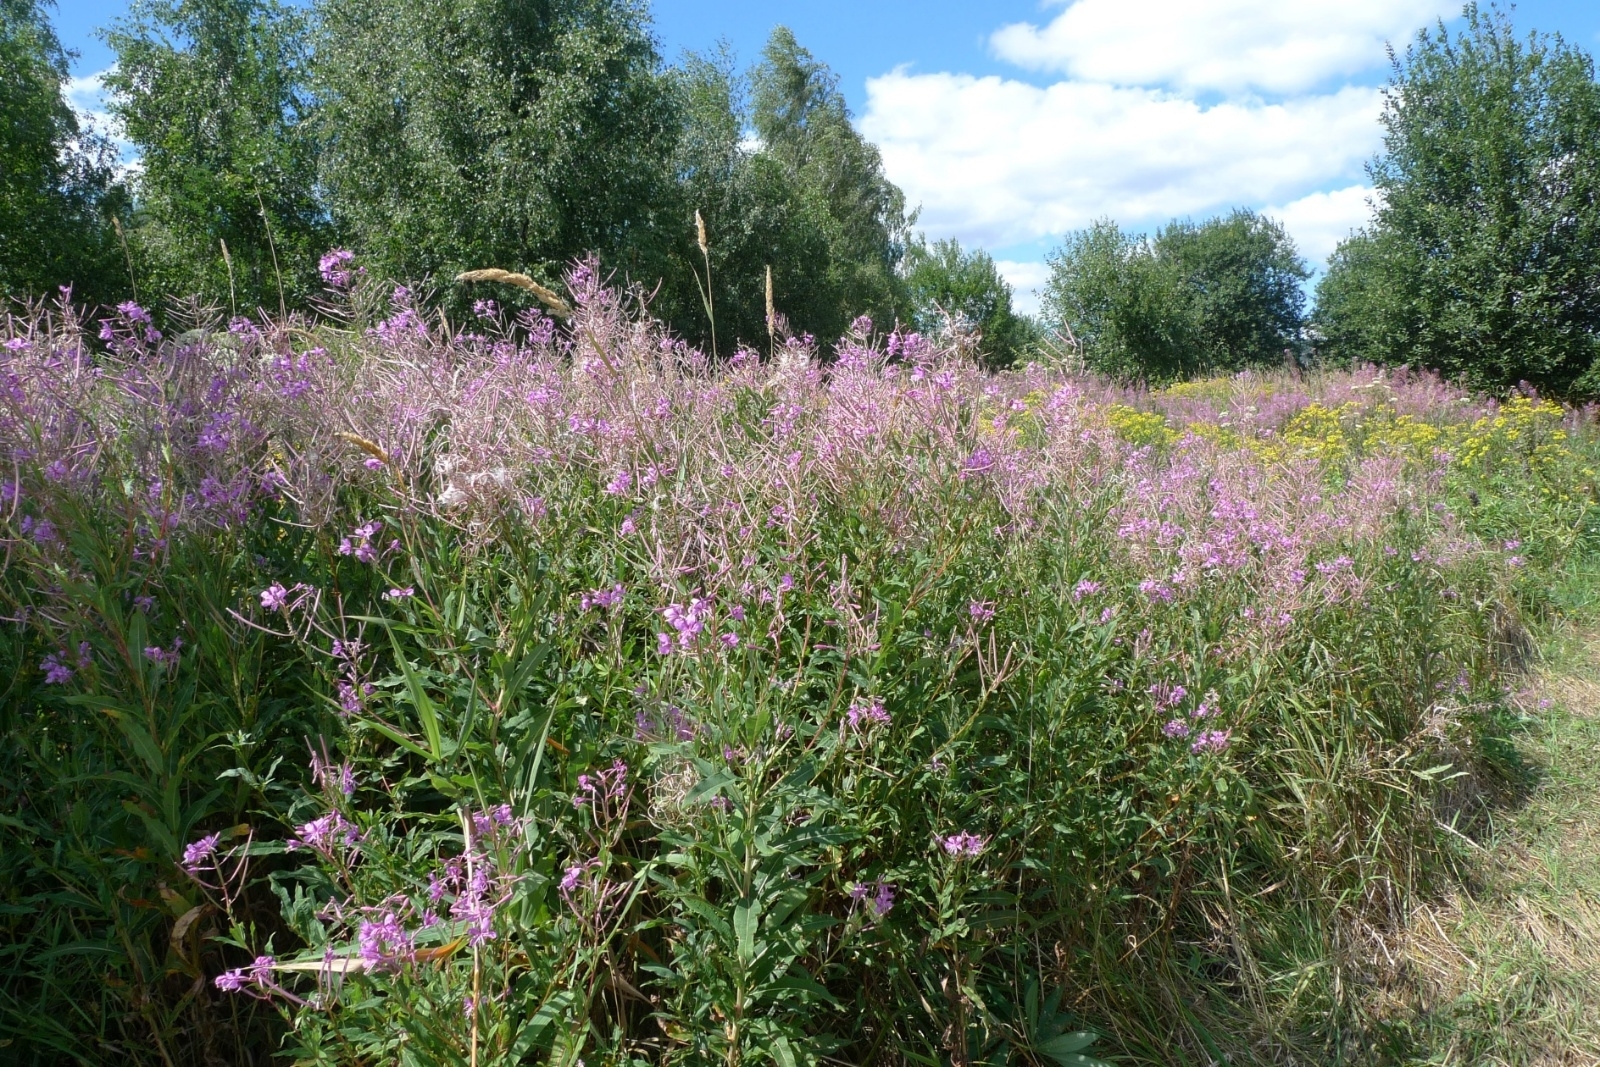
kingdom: Plantae
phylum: Tracheophyta
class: Magnoliopsida
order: Myrtales
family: Onagraceae
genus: Chamaenerion
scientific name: Chamaenerion angustifolium
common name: Fireweed
